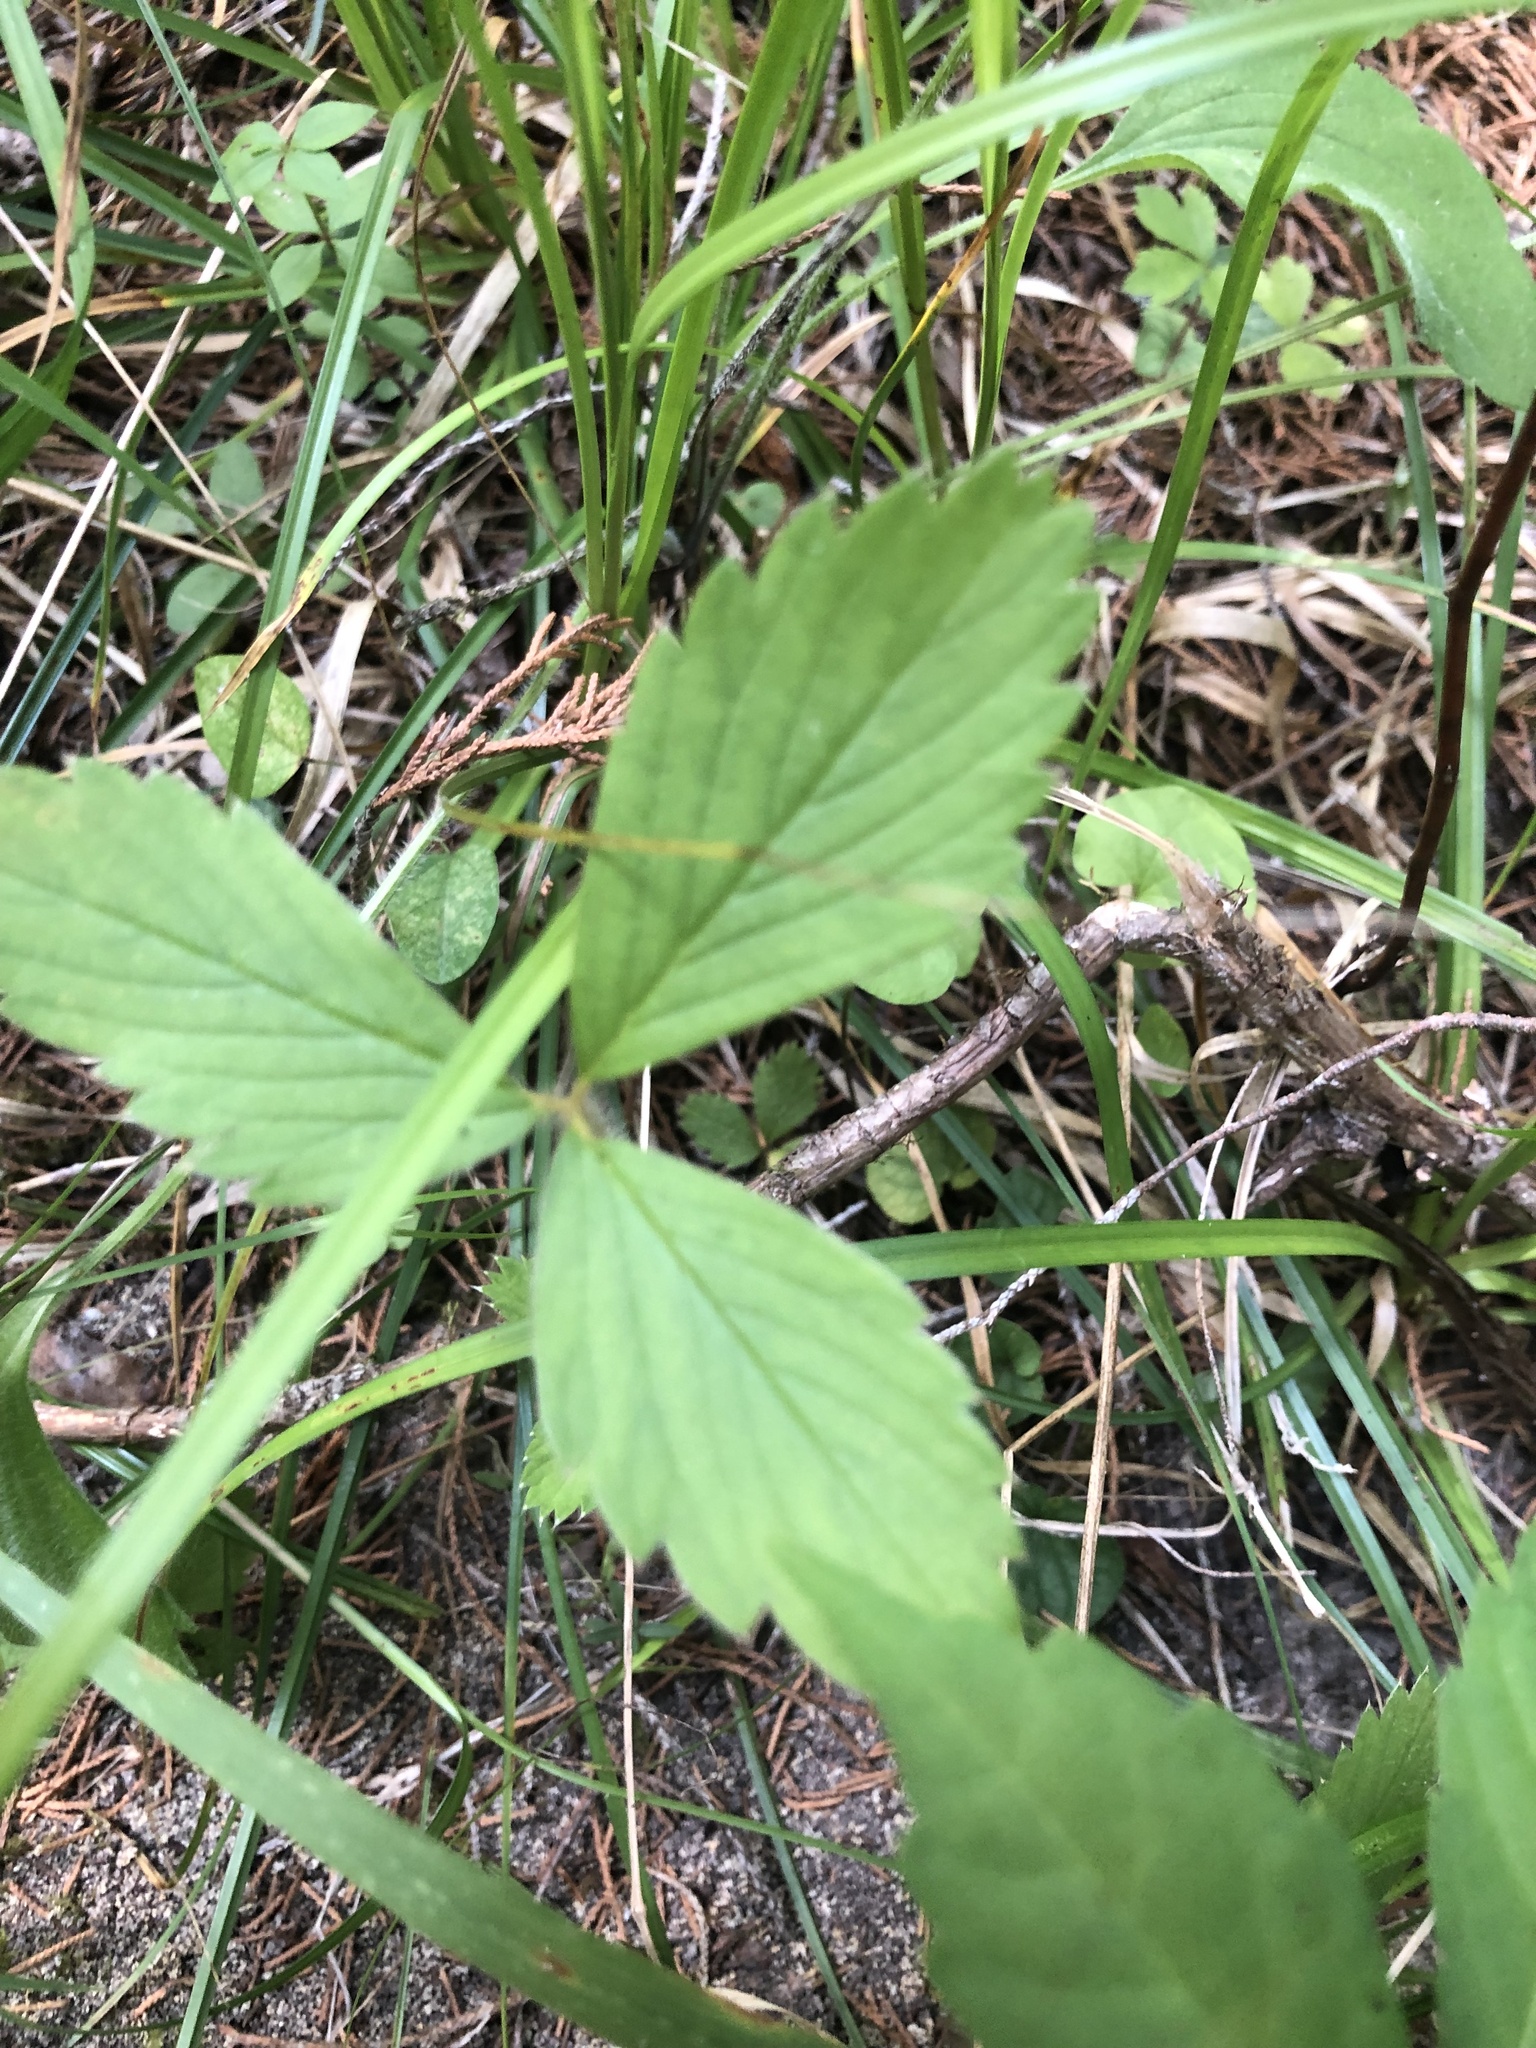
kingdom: Plantae
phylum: Tracheophyta
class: Magnoliopsida
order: Rosales
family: Rosaceae
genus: Fragaria
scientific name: Fragaria virginiana
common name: Thickleaved wild strawberry
